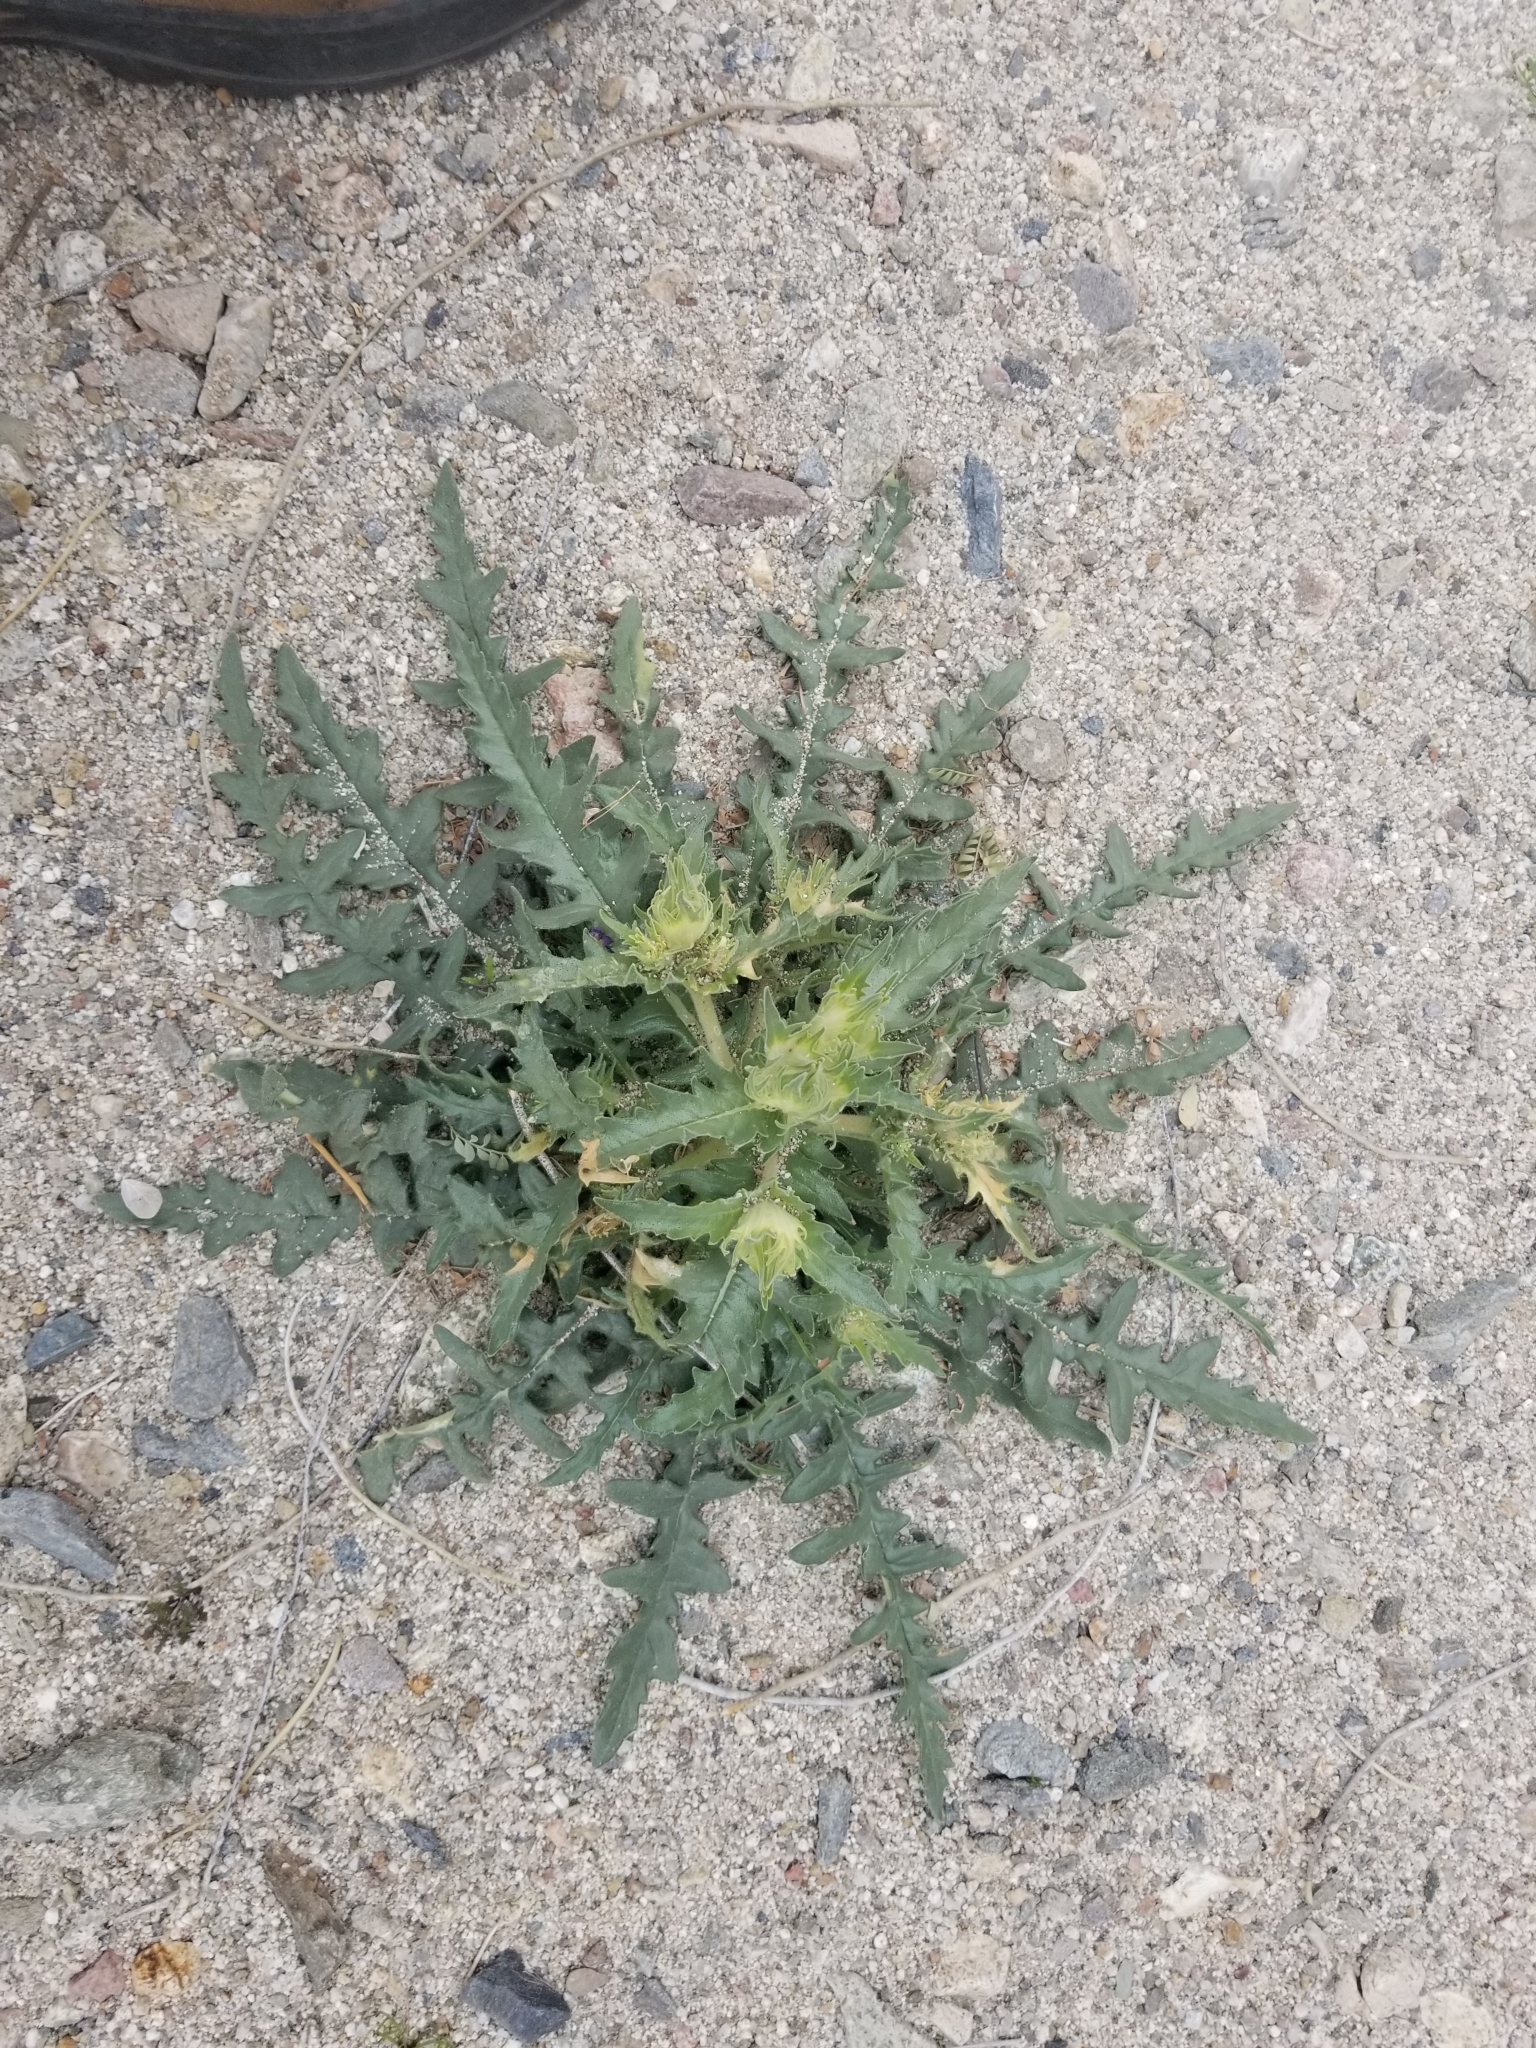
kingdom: Plantae
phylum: Tracheophyta
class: Magnoliopsida
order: Cornales
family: Loasaceae
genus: Mentzelia
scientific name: Mentzelia involucrata
